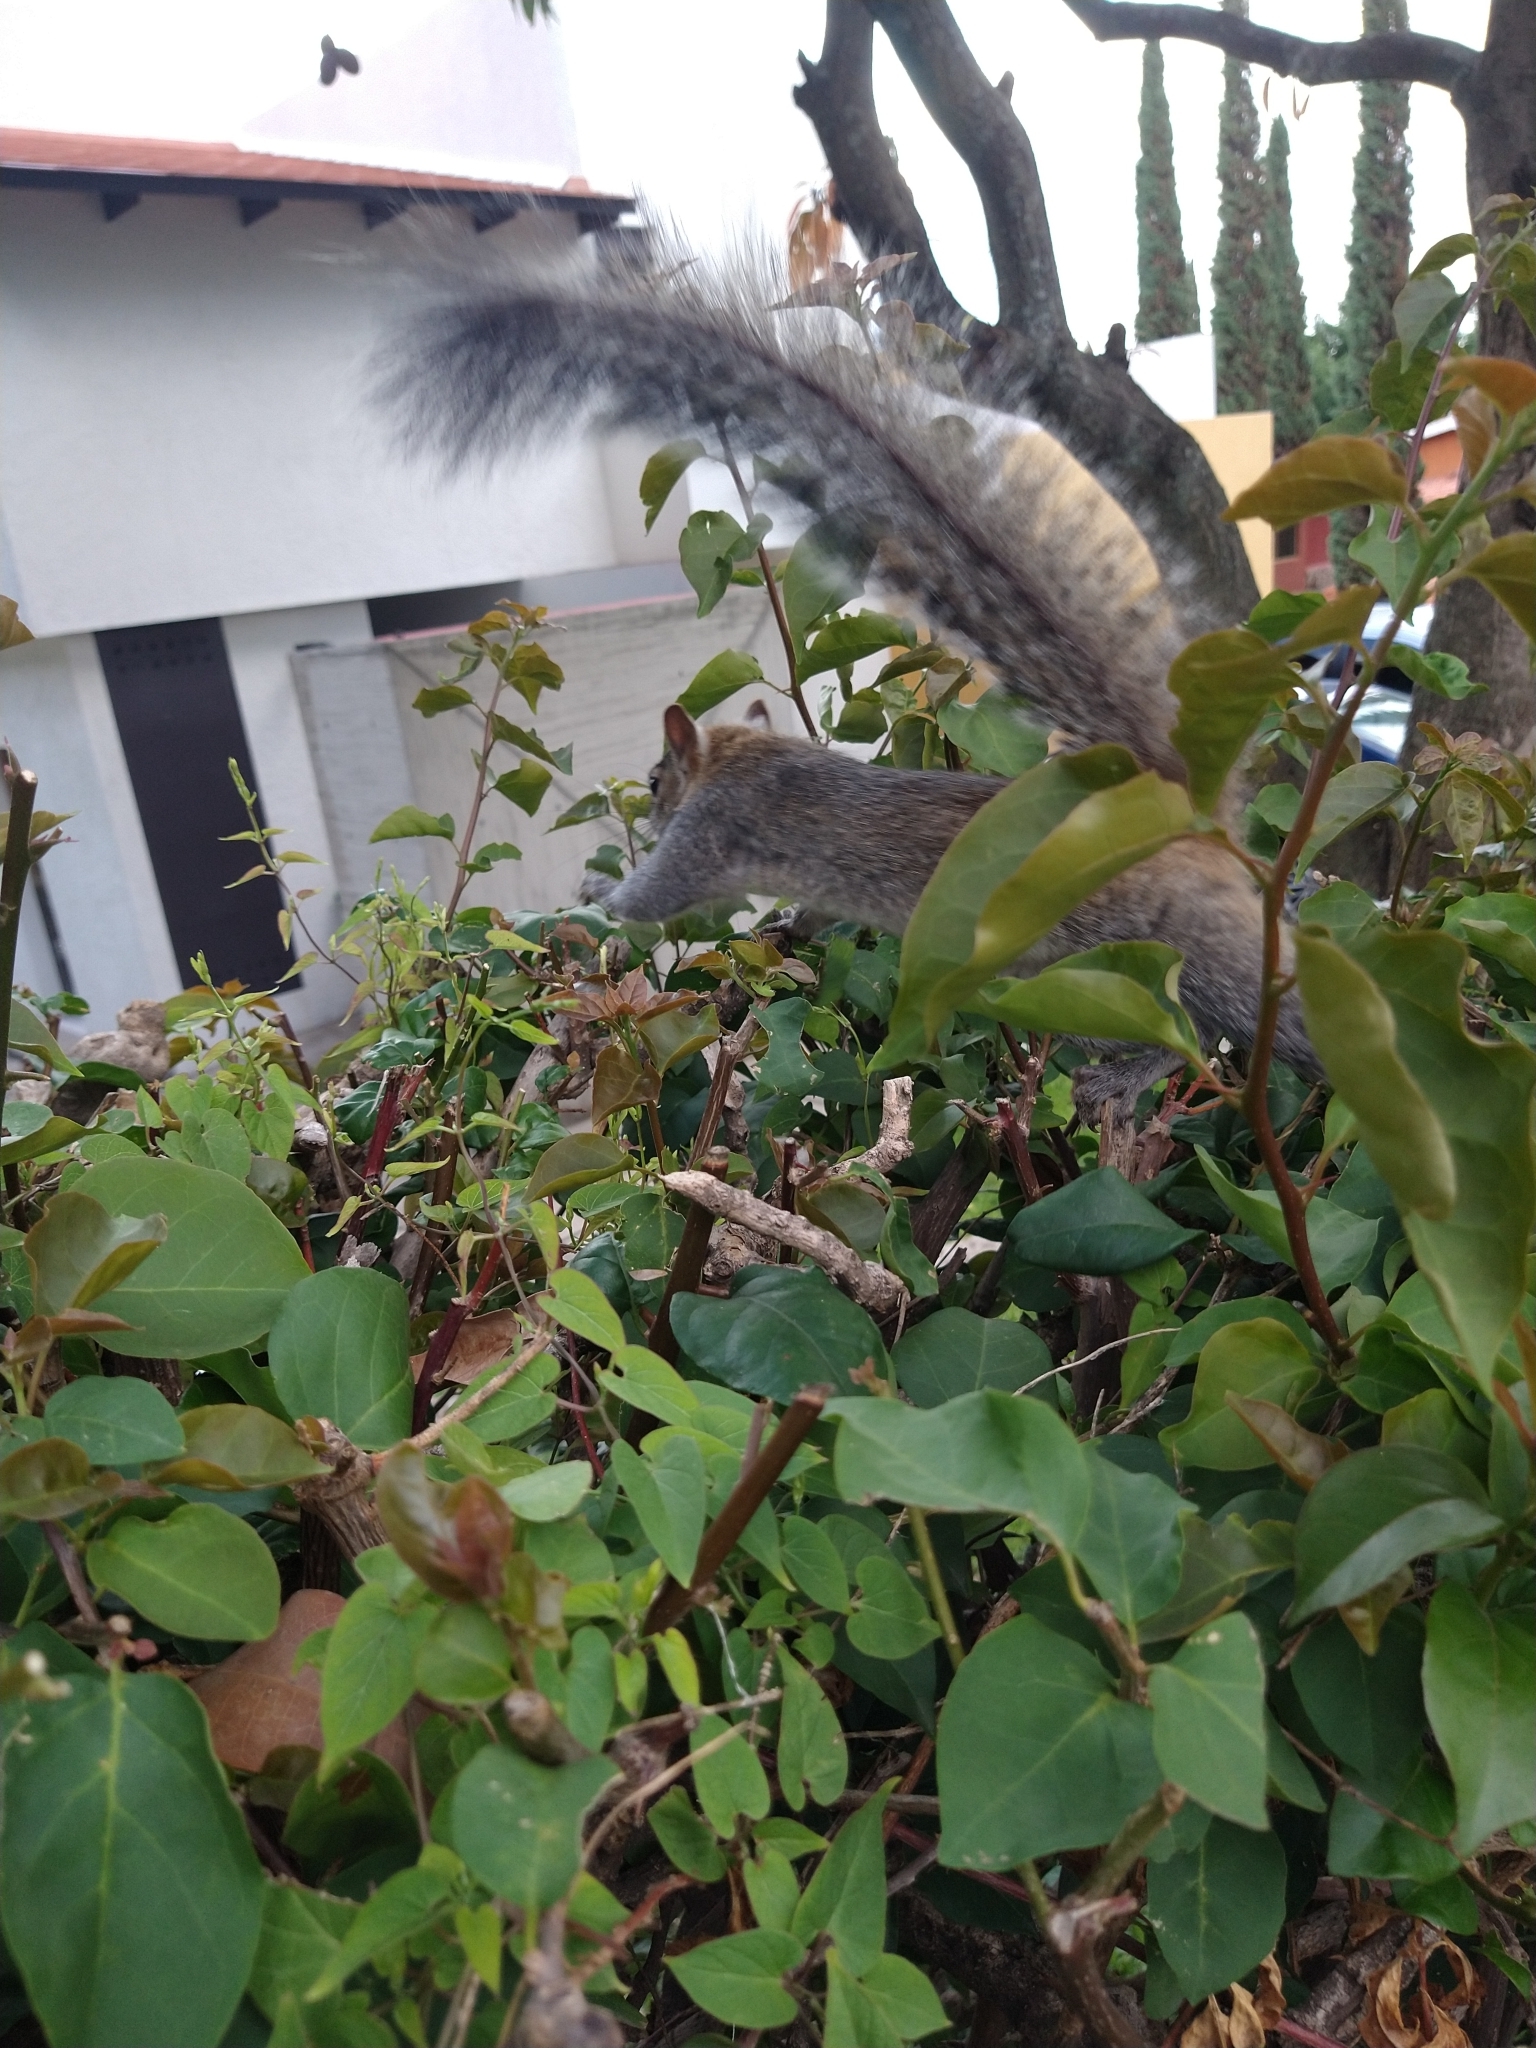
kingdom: Animalia
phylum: Chordata
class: Mammalia
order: Rodentia
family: Sciuridae
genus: Sciurus
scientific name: Sciurus aureogaster
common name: Red-bellied squirrel
